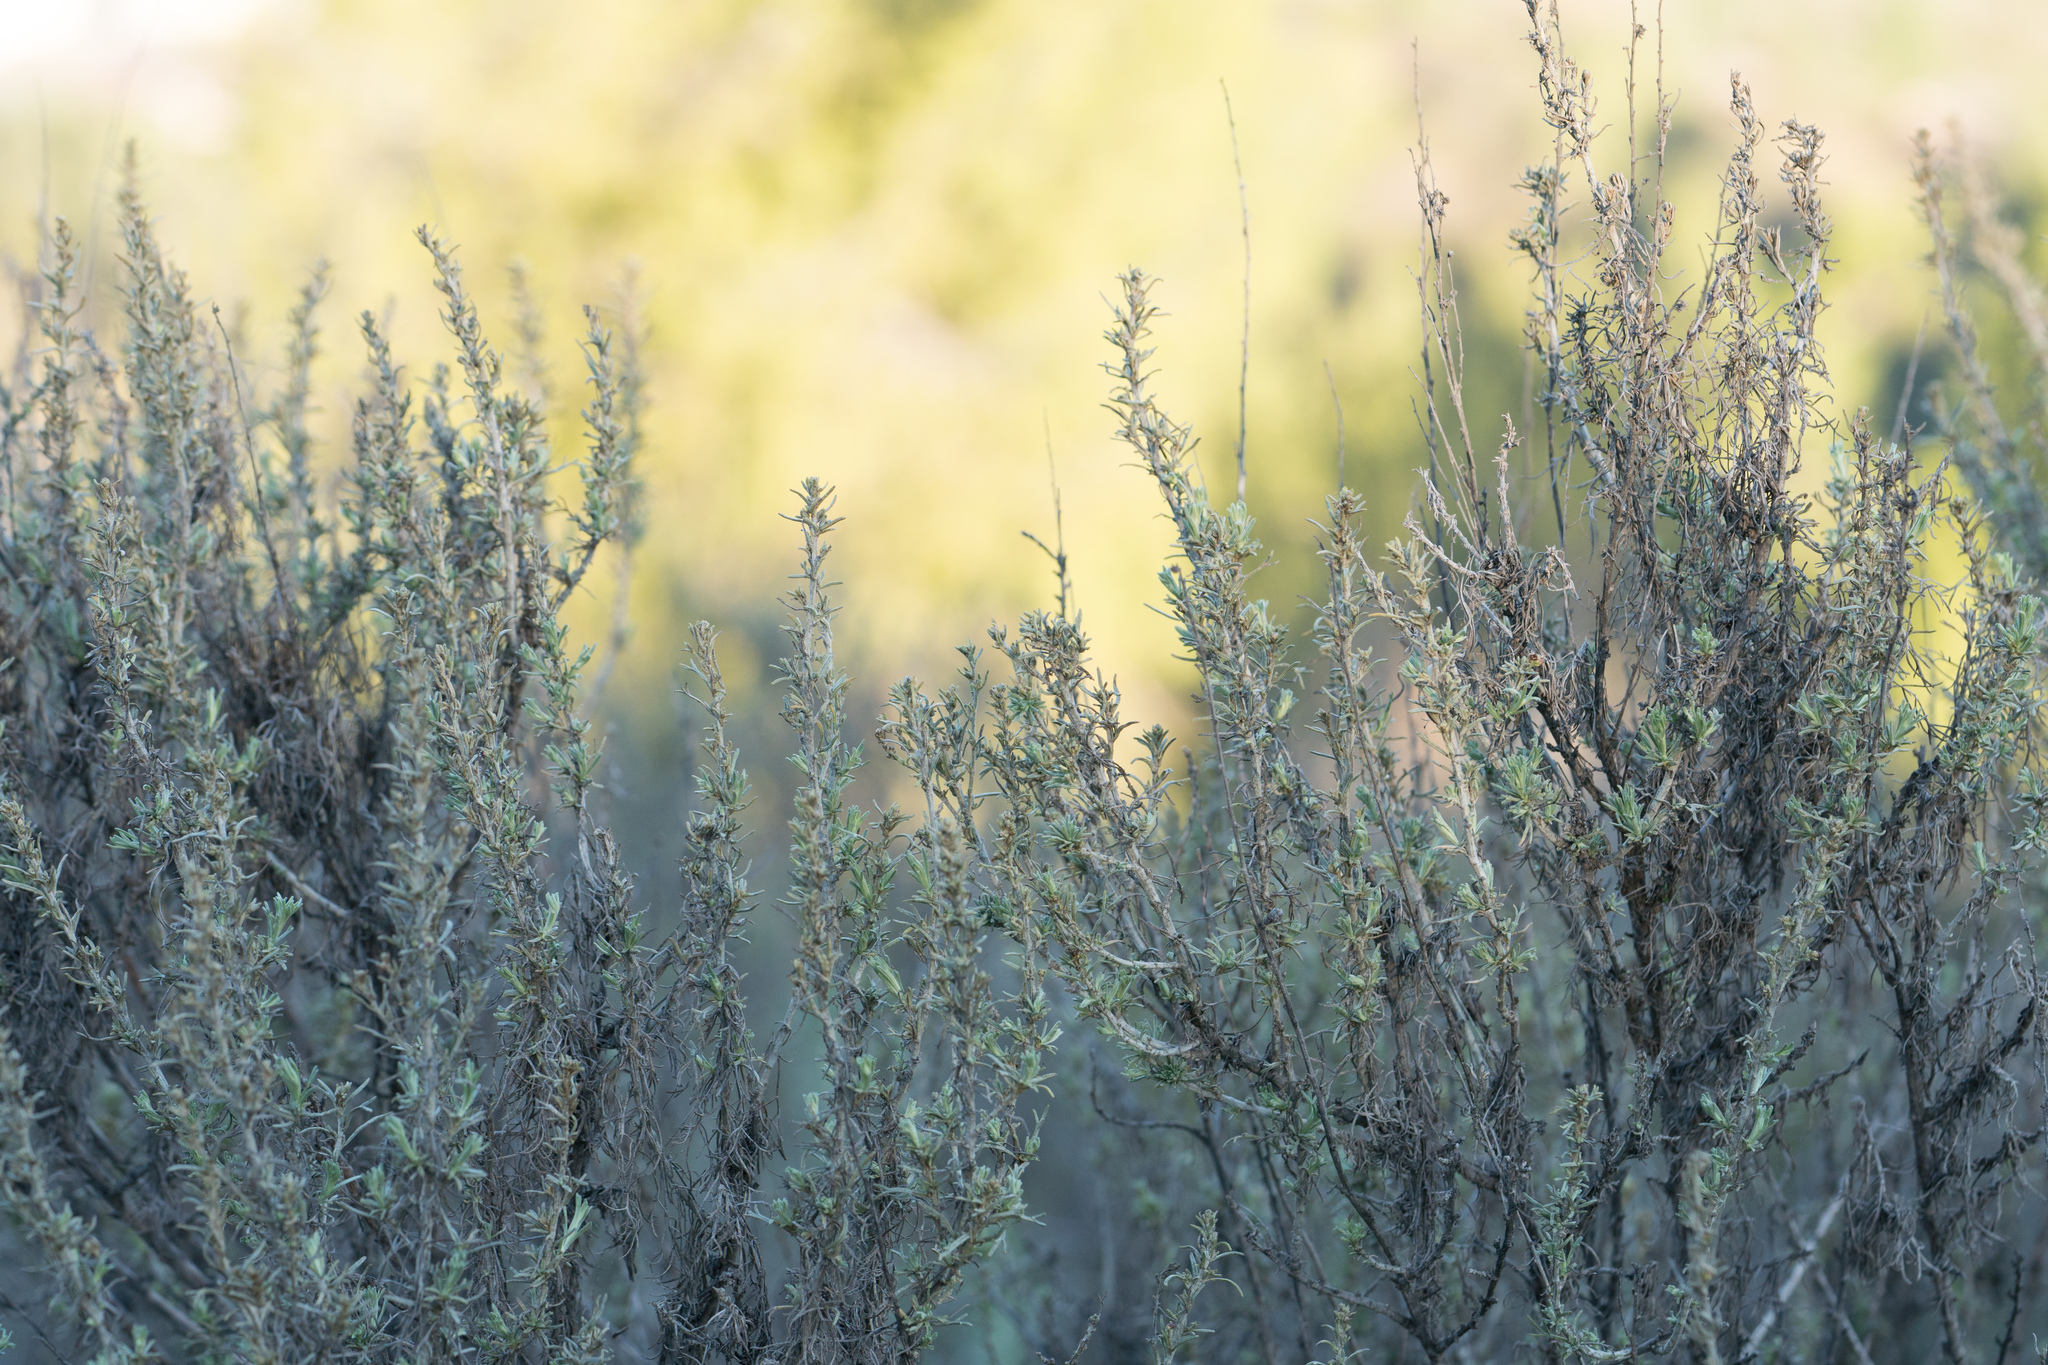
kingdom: Plantae
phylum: Tracheophyta
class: Magnoliopsida
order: Asterales
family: Asteraceae
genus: Artemisia
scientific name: Artemisia californica
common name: California sagebrush
